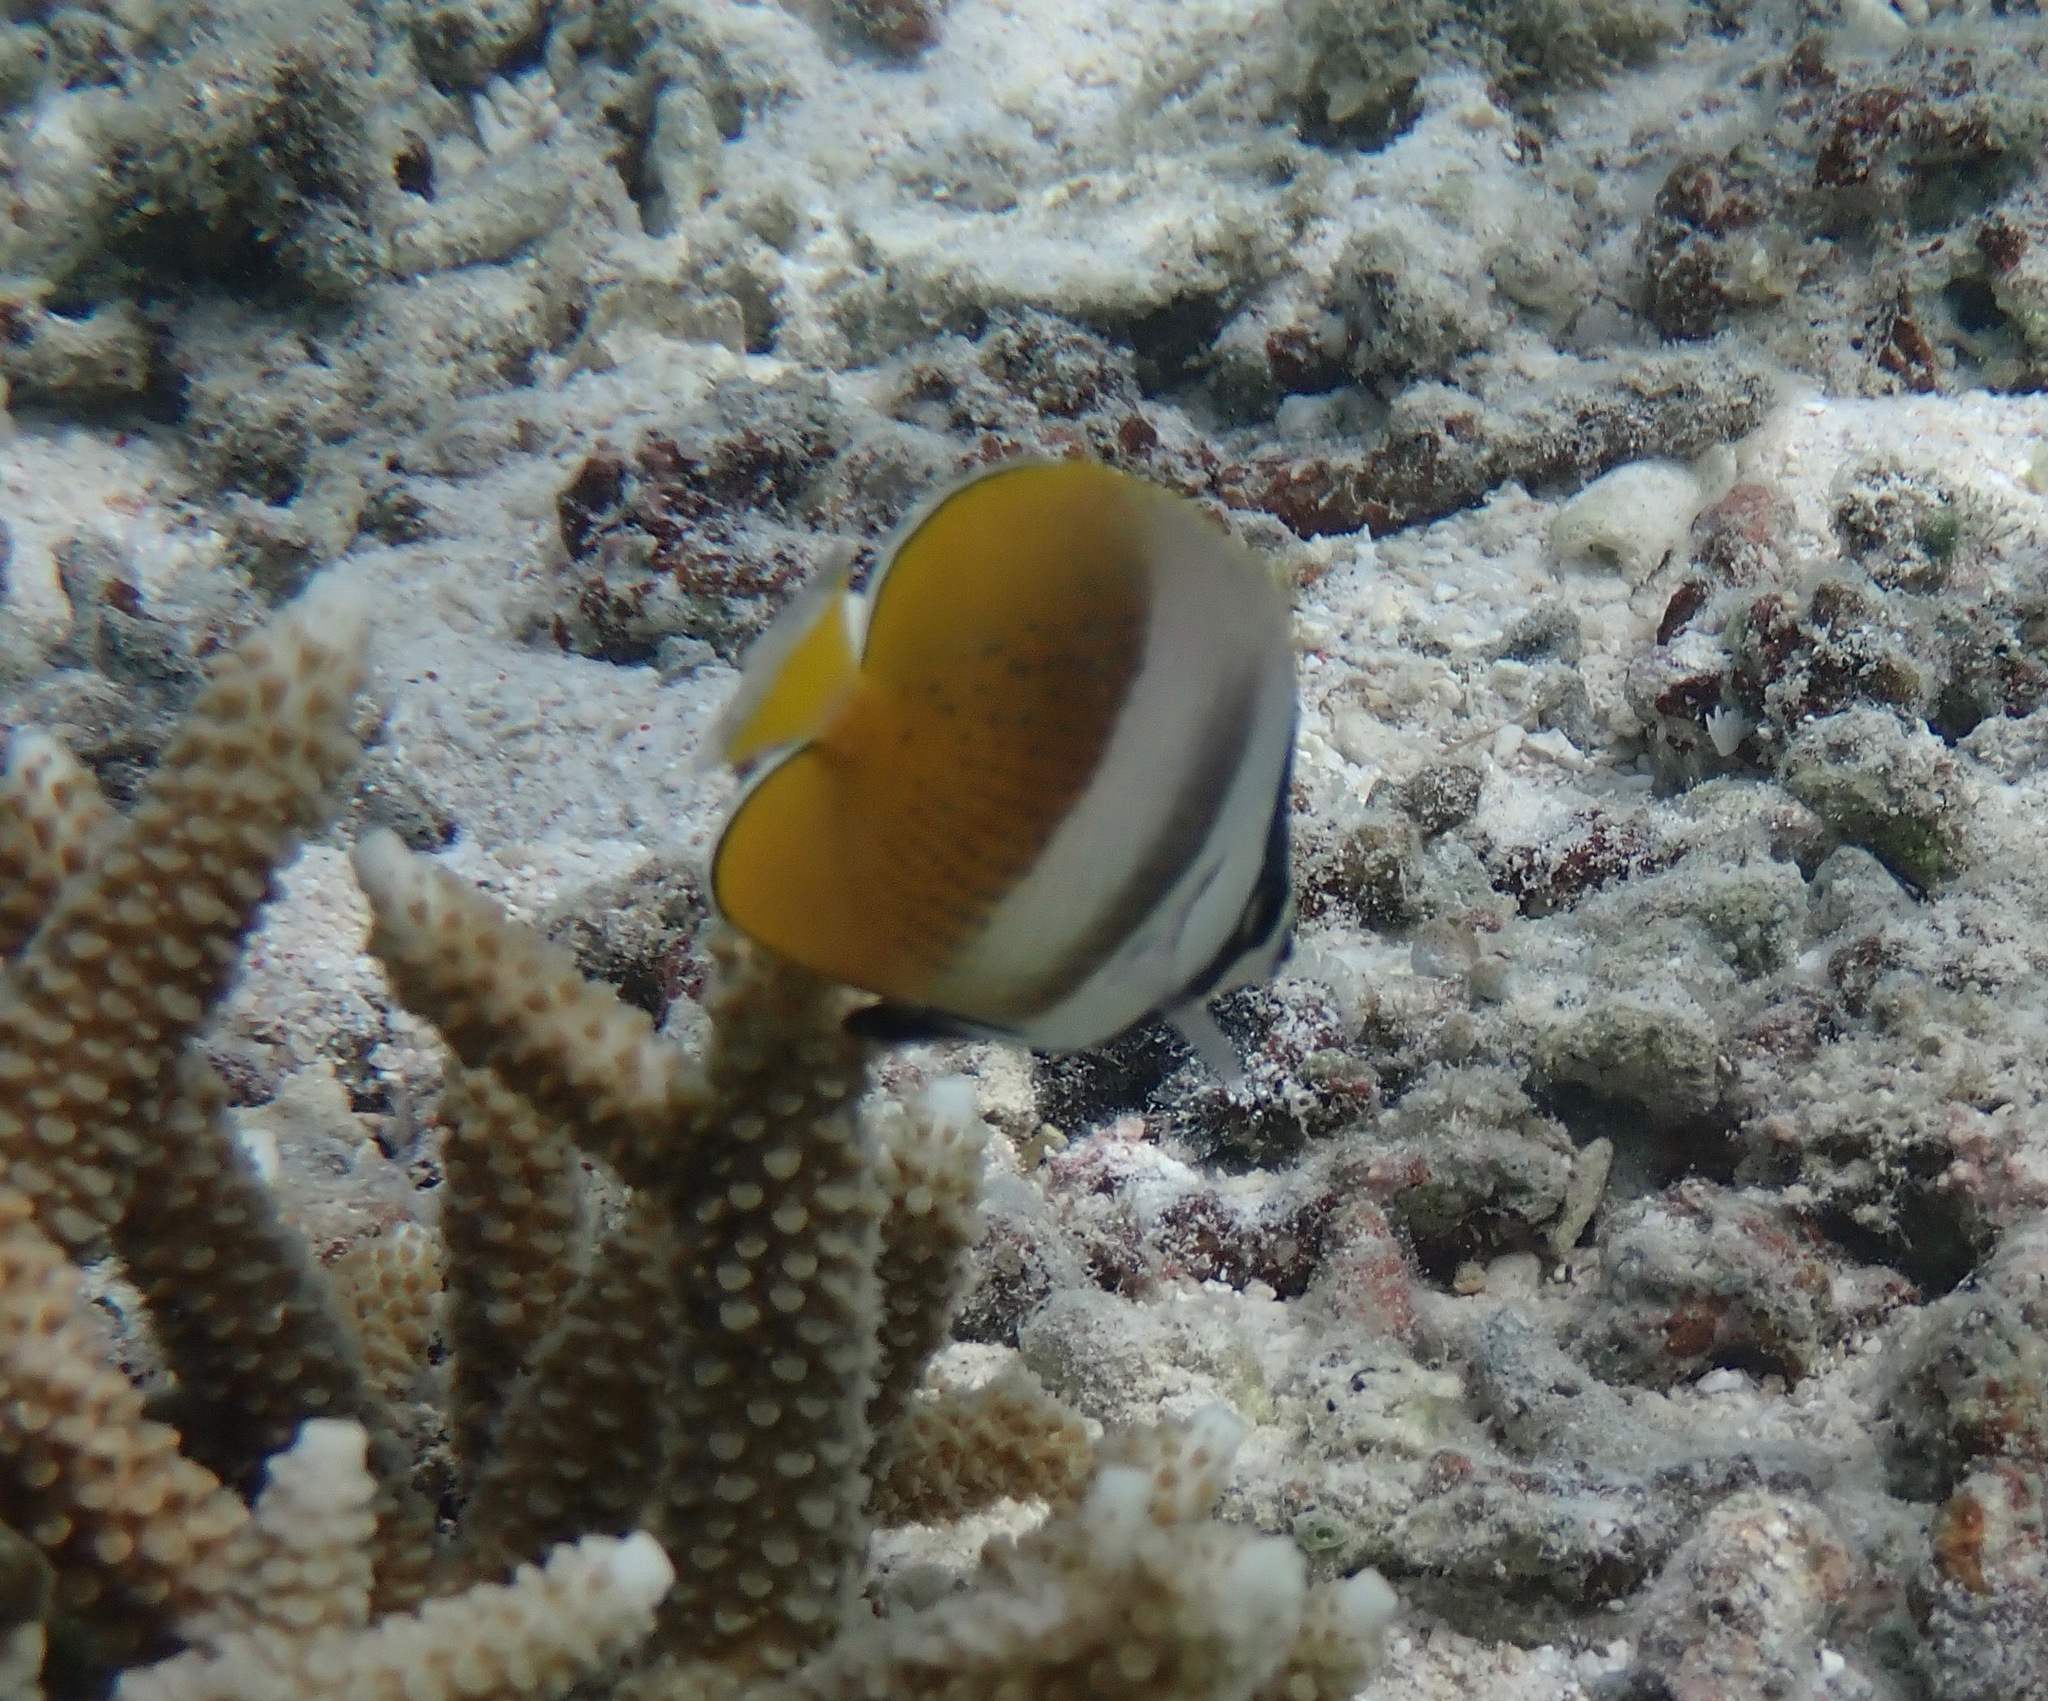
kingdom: Animalia
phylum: Chordata
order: Perciformes
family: Chaetodontidae
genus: Chaetodon
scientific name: Chaetodon kleinii
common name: Klein's butterflyfish
